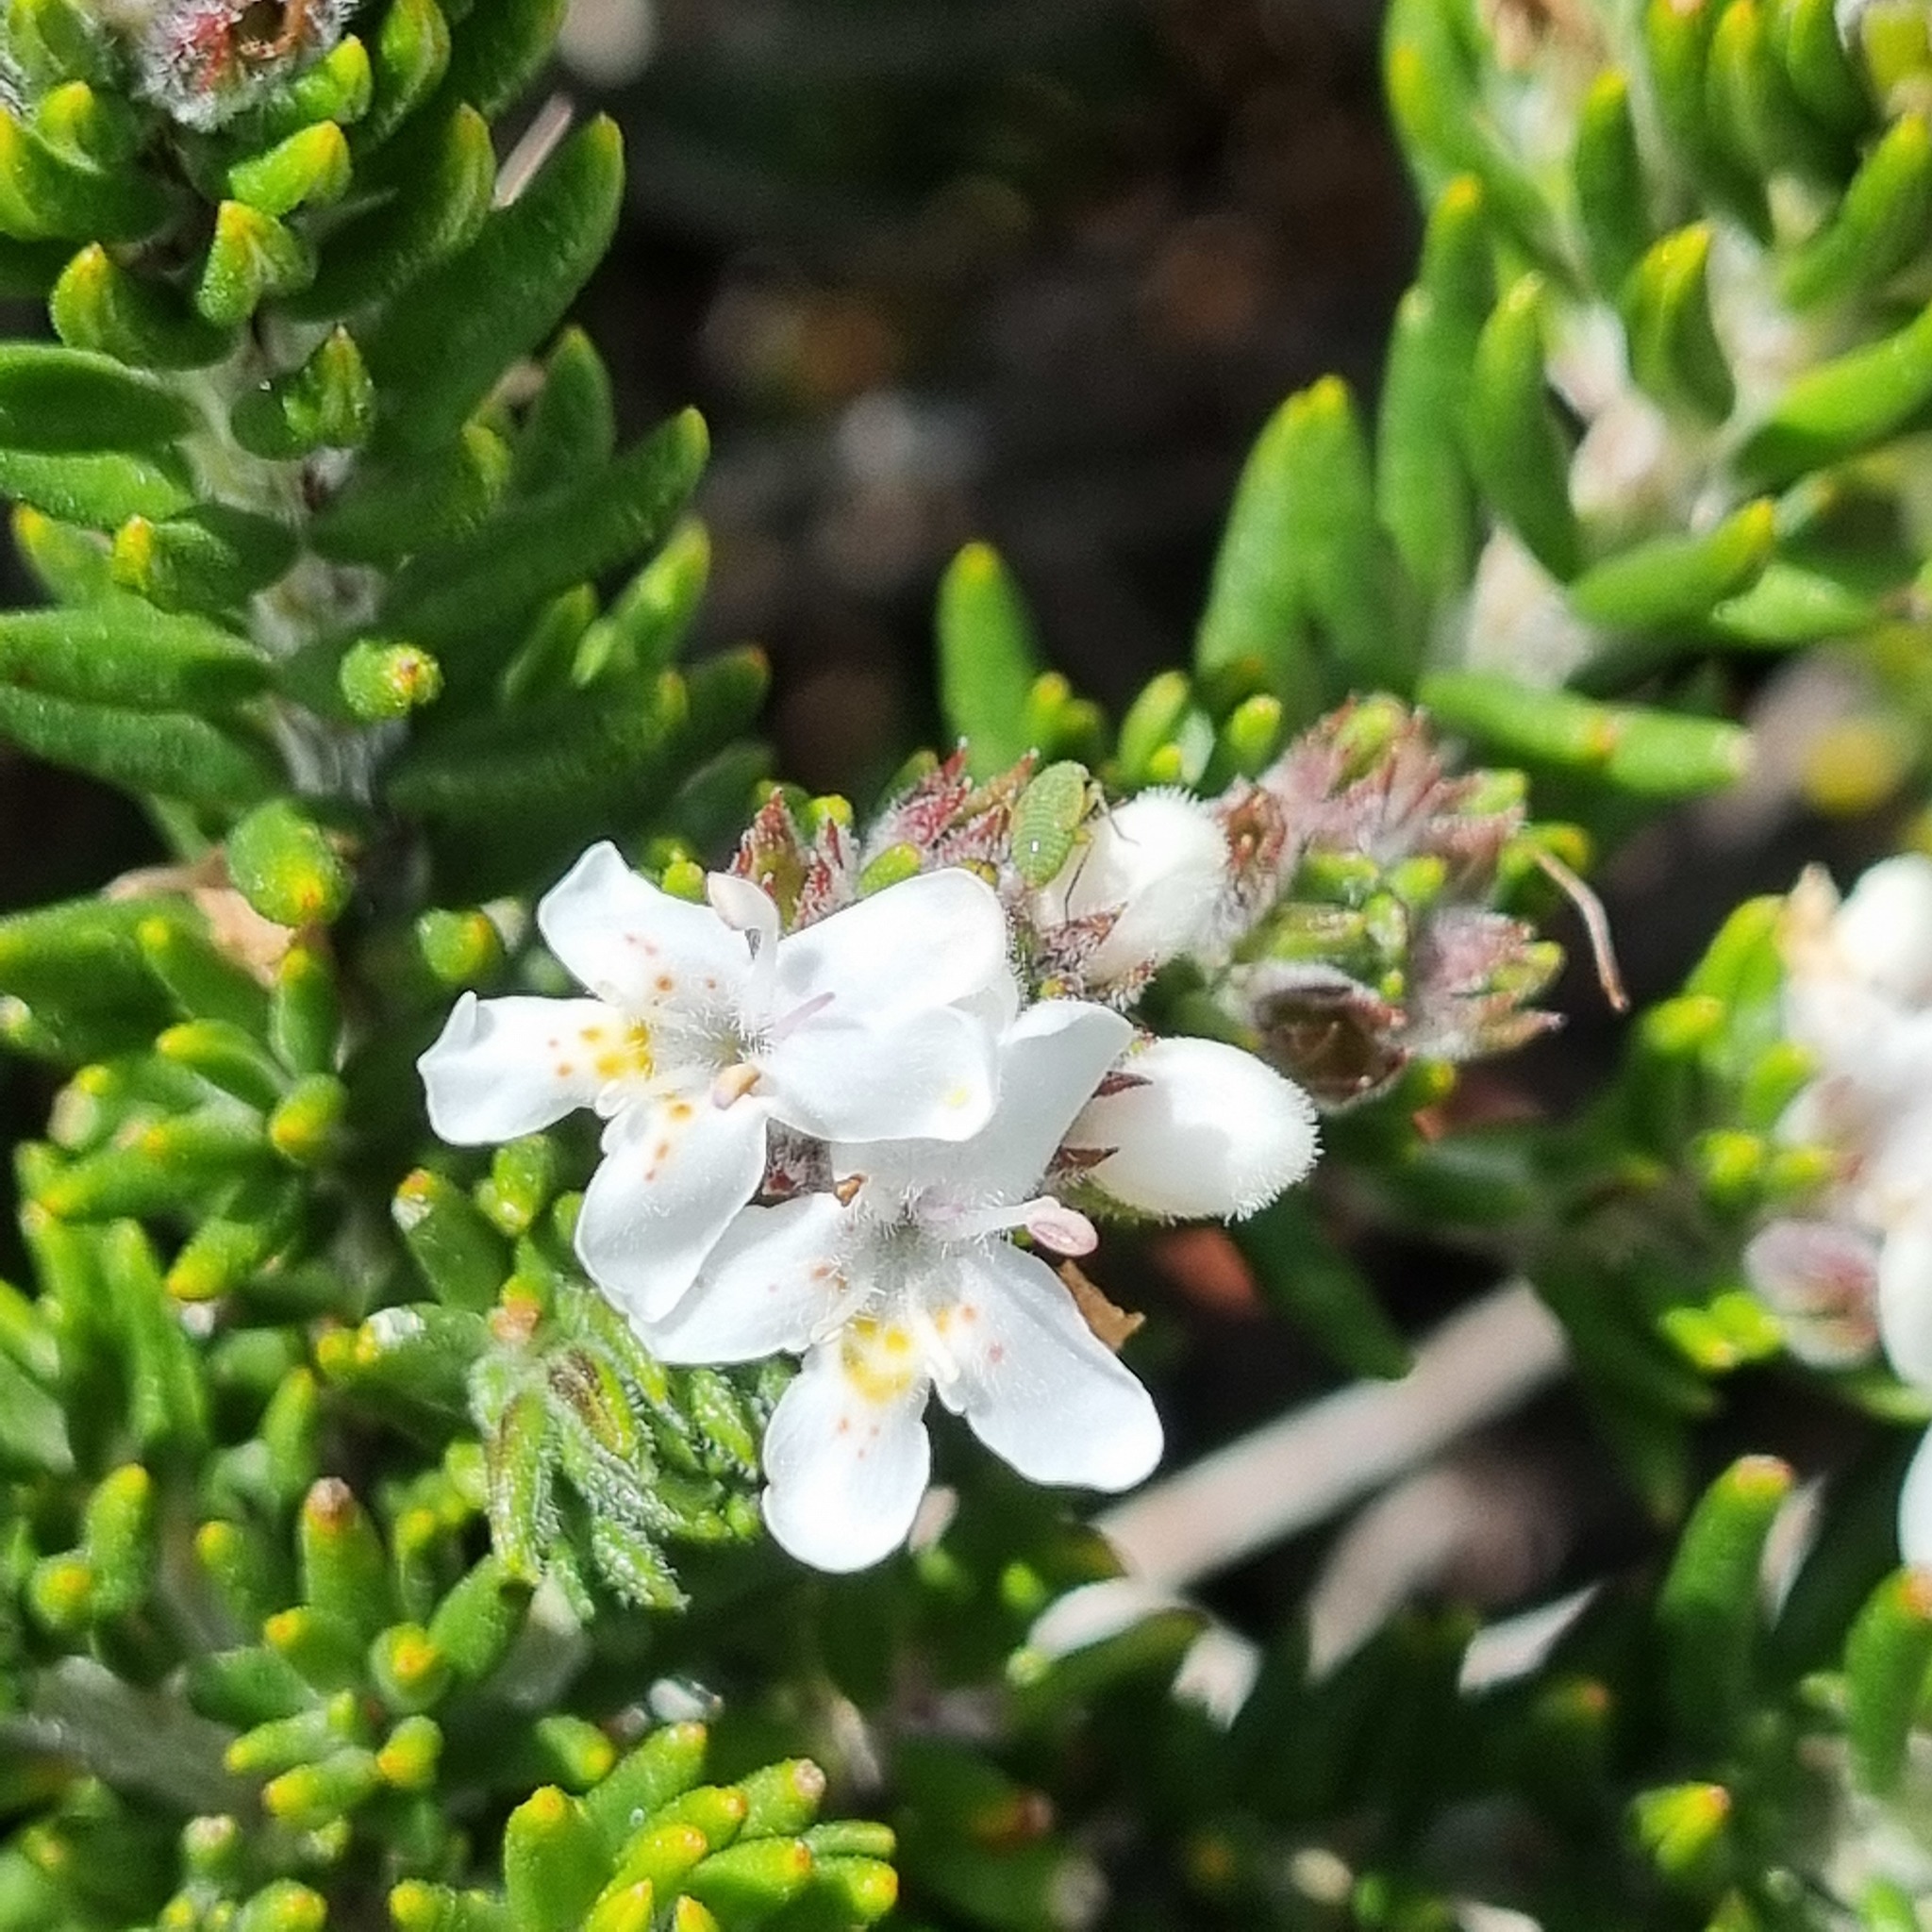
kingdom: Plantae
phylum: Tracheophyta
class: Magnoliopsida
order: Lamiales
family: Lamiaceae
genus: Westringia
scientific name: Westringia senifolia
